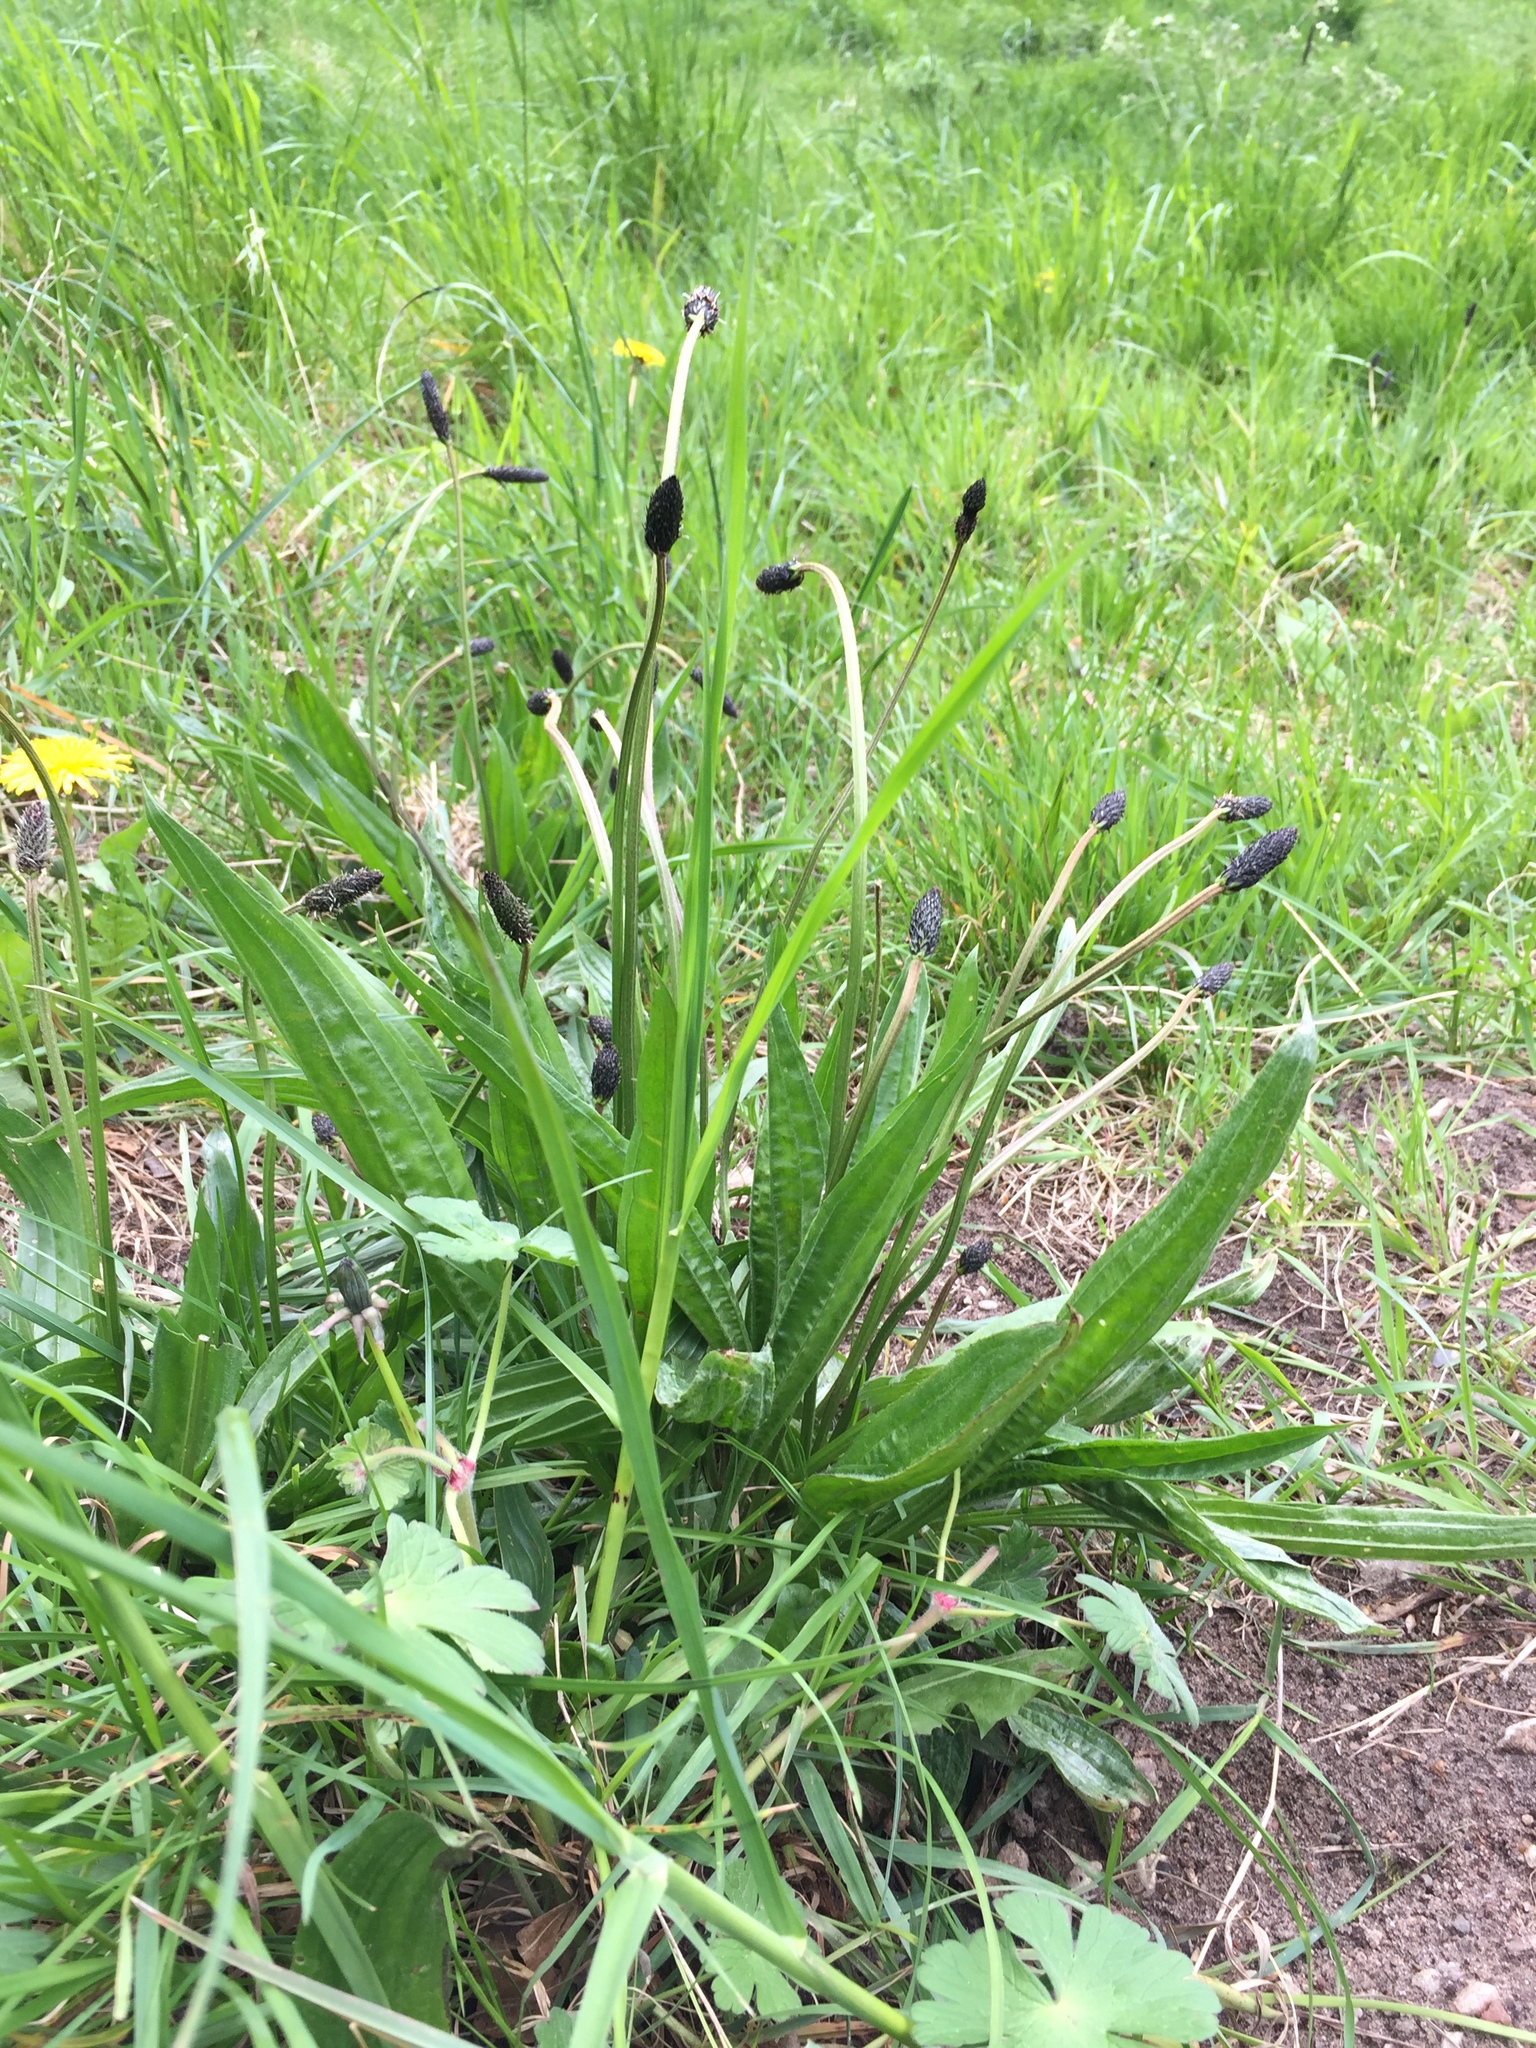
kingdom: Plantae
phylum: Tracheophyta
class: Magnoliopsida
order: Lamiales
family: Plantaginaceae
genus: Plantago
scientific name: Plantago lanceolata
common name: Ribwort plantain
